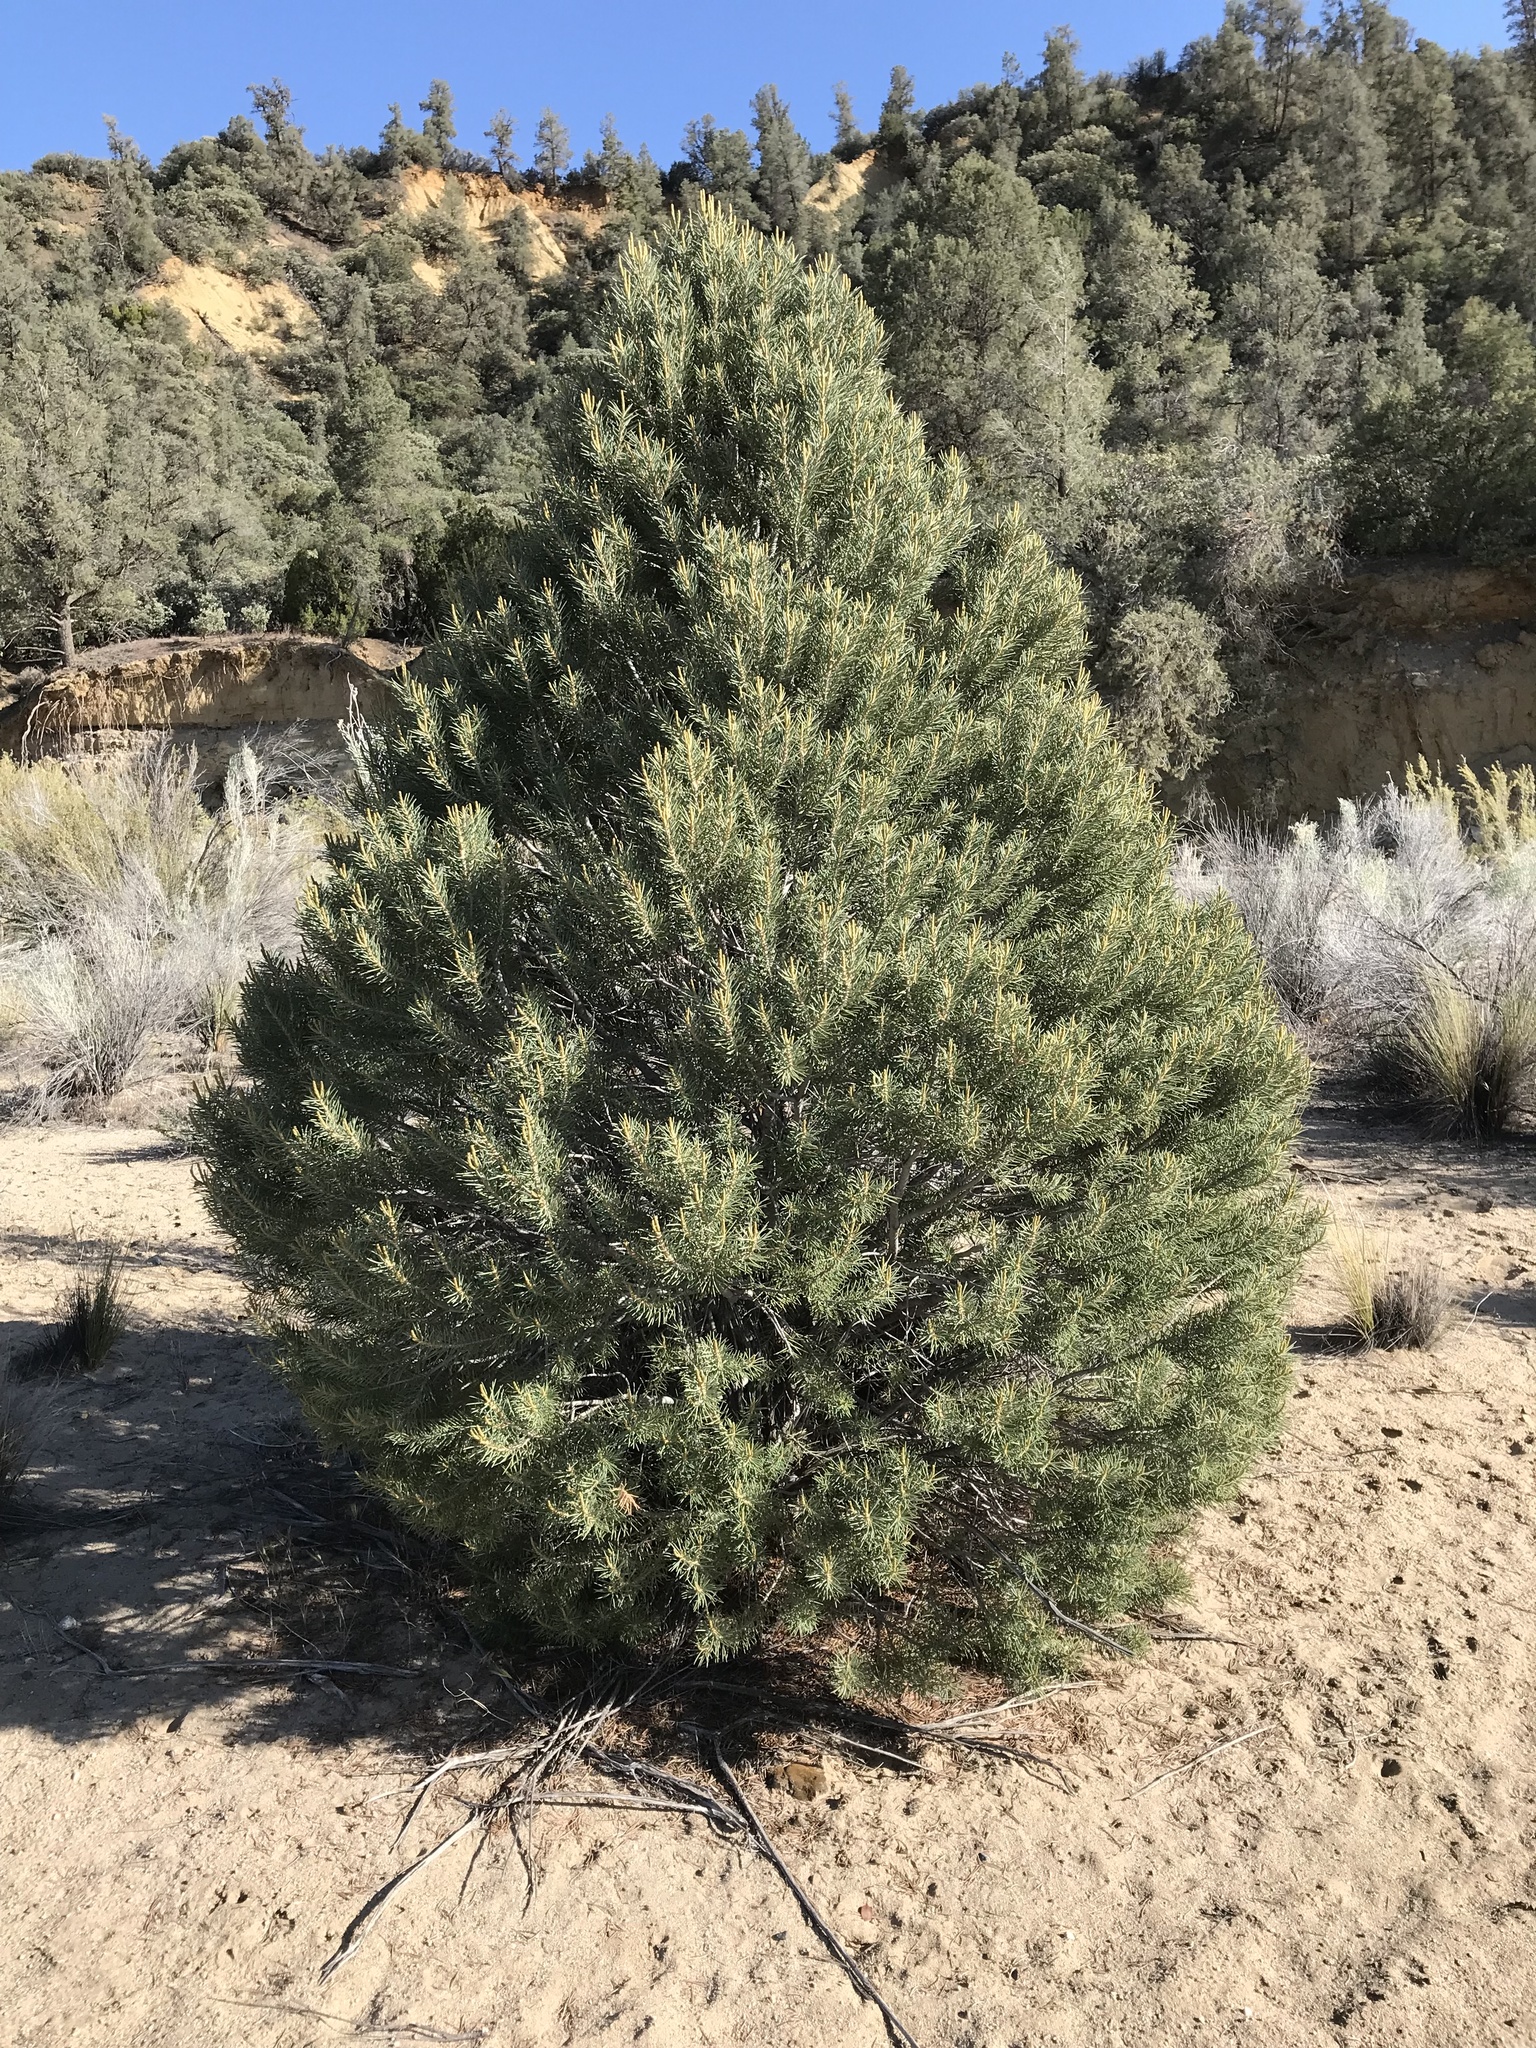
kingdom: Plantae
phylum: Tracheophyta
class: Pinopsida
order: Pinales
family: Pinaceae
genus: Pinus
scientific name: Pinus monophylla
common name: One-leaved nut pine
